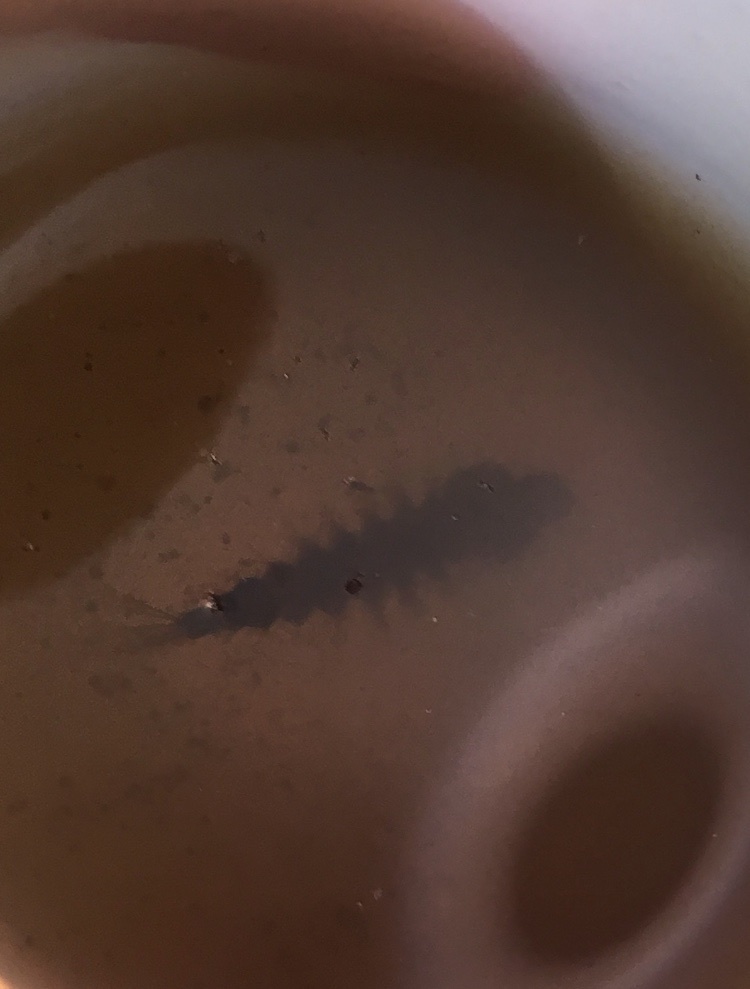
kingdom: Animalia
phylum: Arthropoda
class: Insecta
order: Diptera
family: Culicidae
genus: Toxorhynchites
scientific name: Toxorhynchites rutilus
